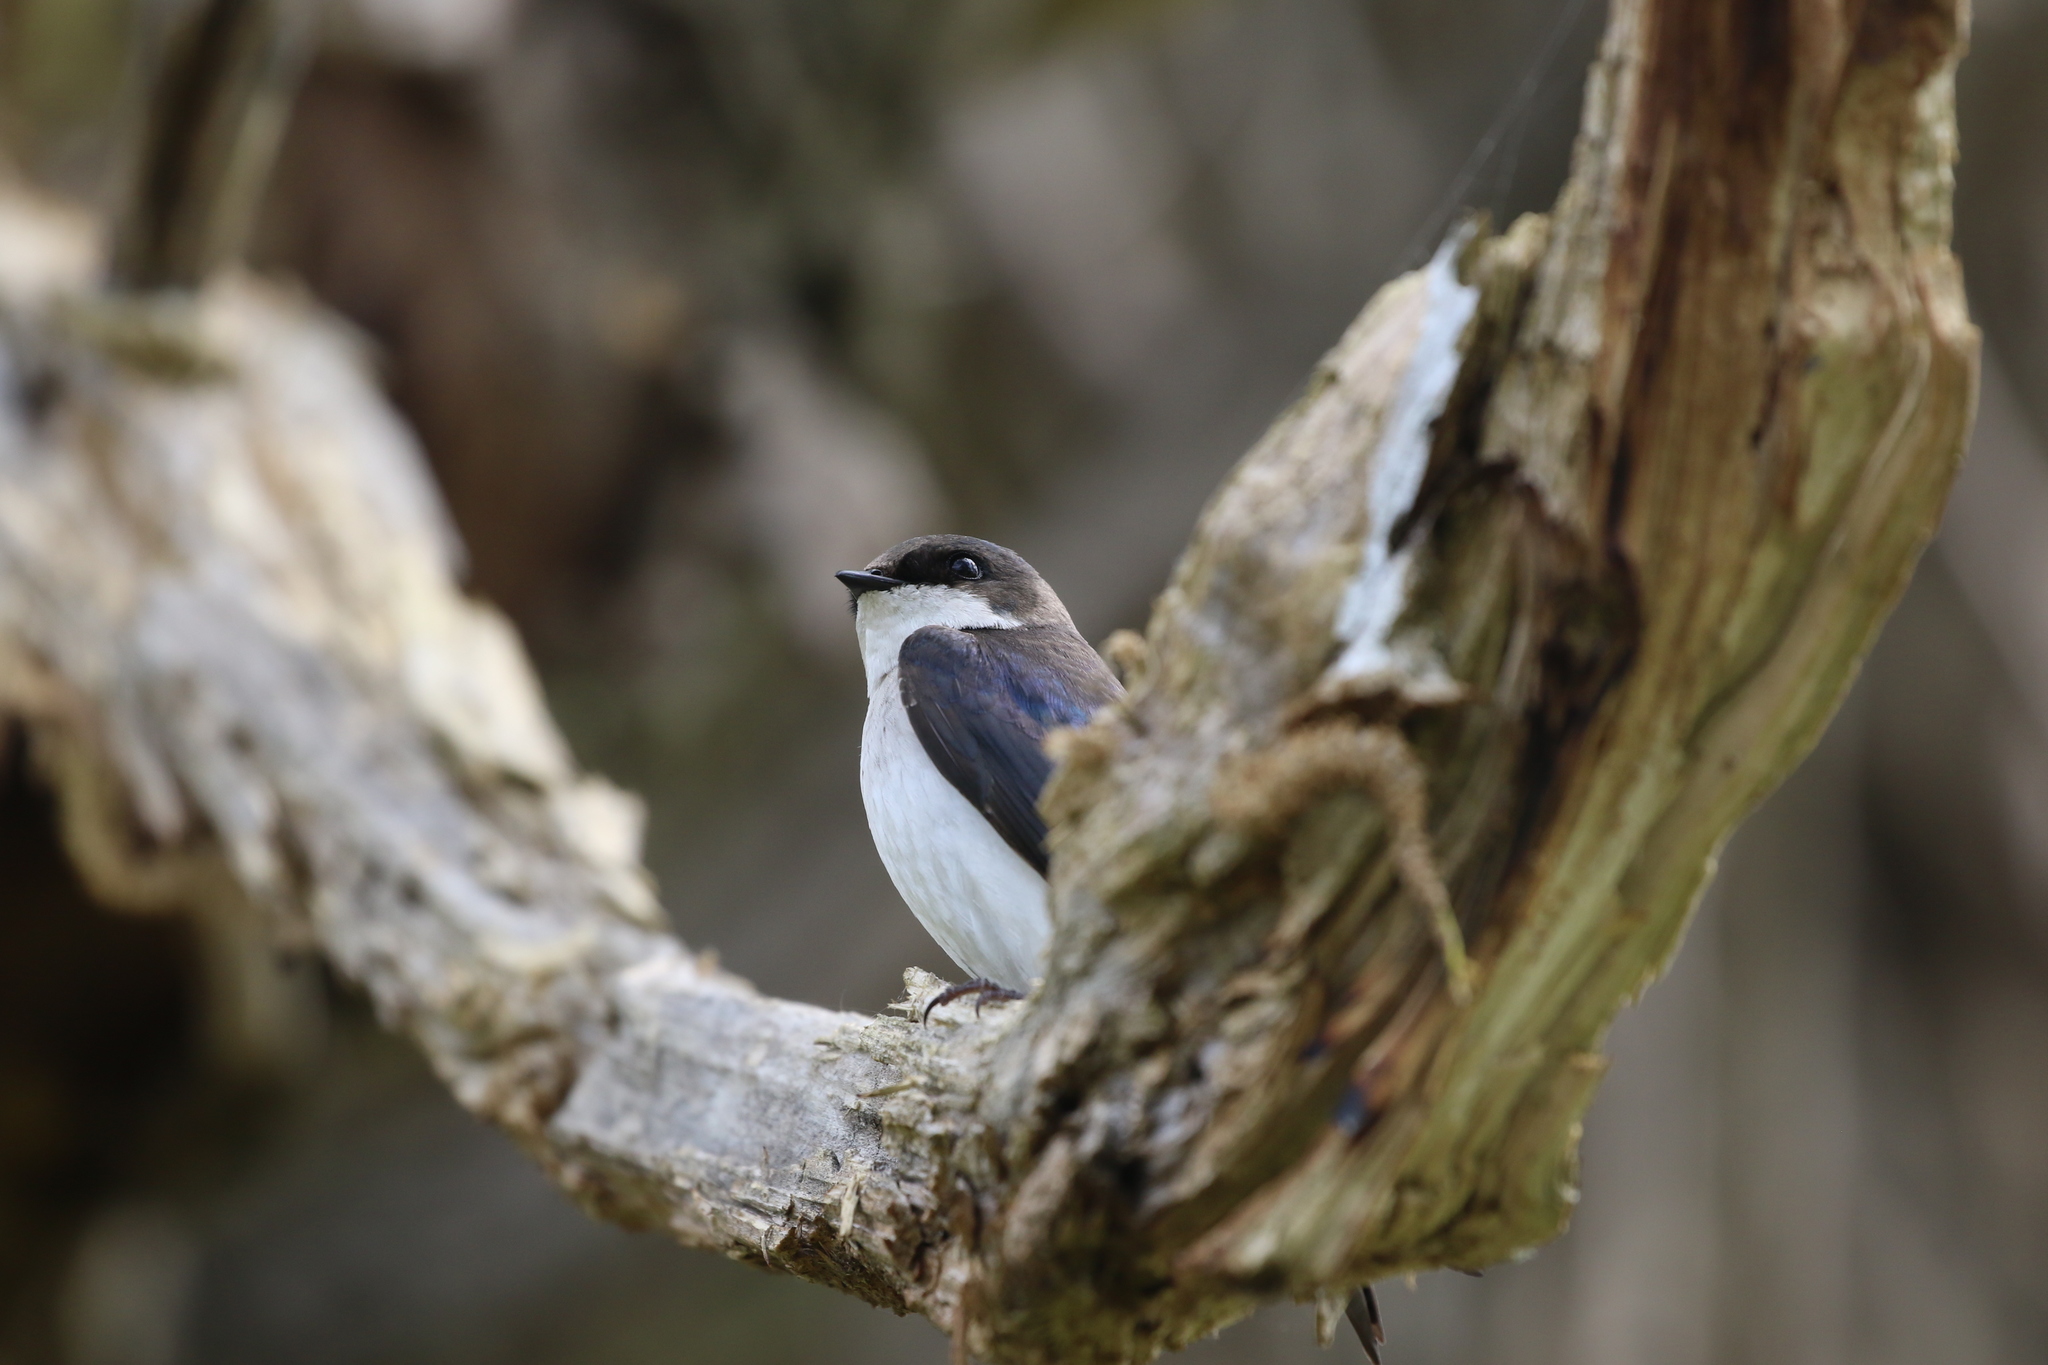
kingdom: Animalia
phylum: Chordata
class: Aves
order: Passeriformes
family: Hirundinidae
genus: Tachycineta
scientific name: Tachycineta bicolor
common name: Tree swallow
